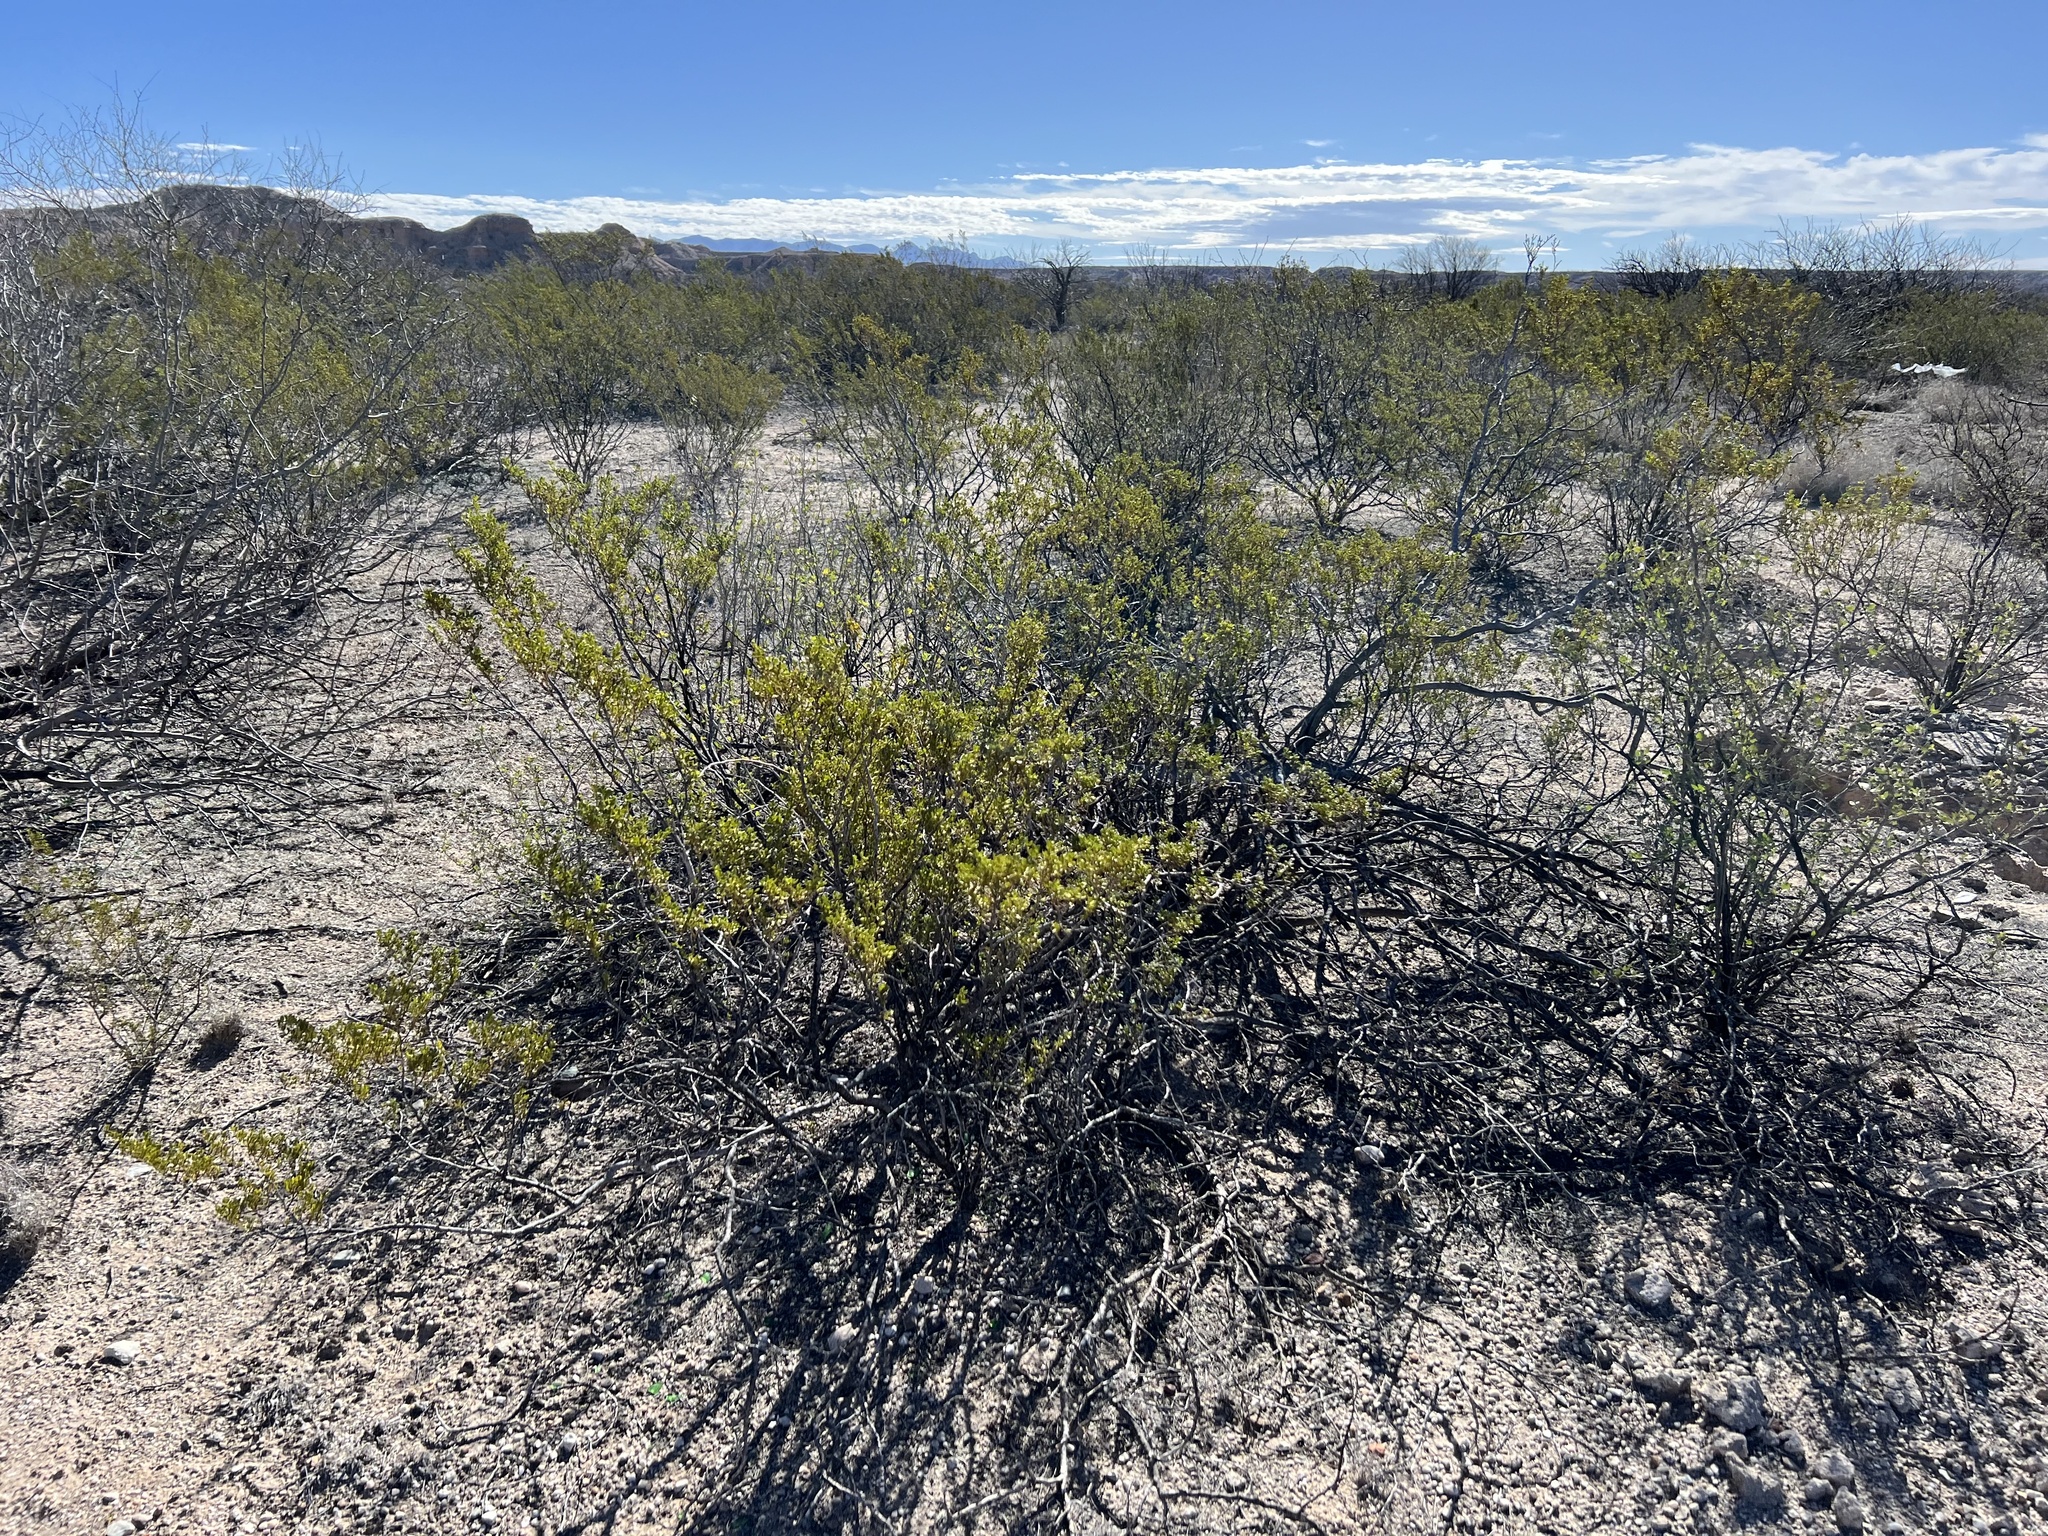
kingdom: Plantae
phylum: Tracheophyta
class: Magnoliopsida
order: Zygophyllales
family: Zygophyllaceae
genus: Larrea
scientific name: Larrea tridentata
